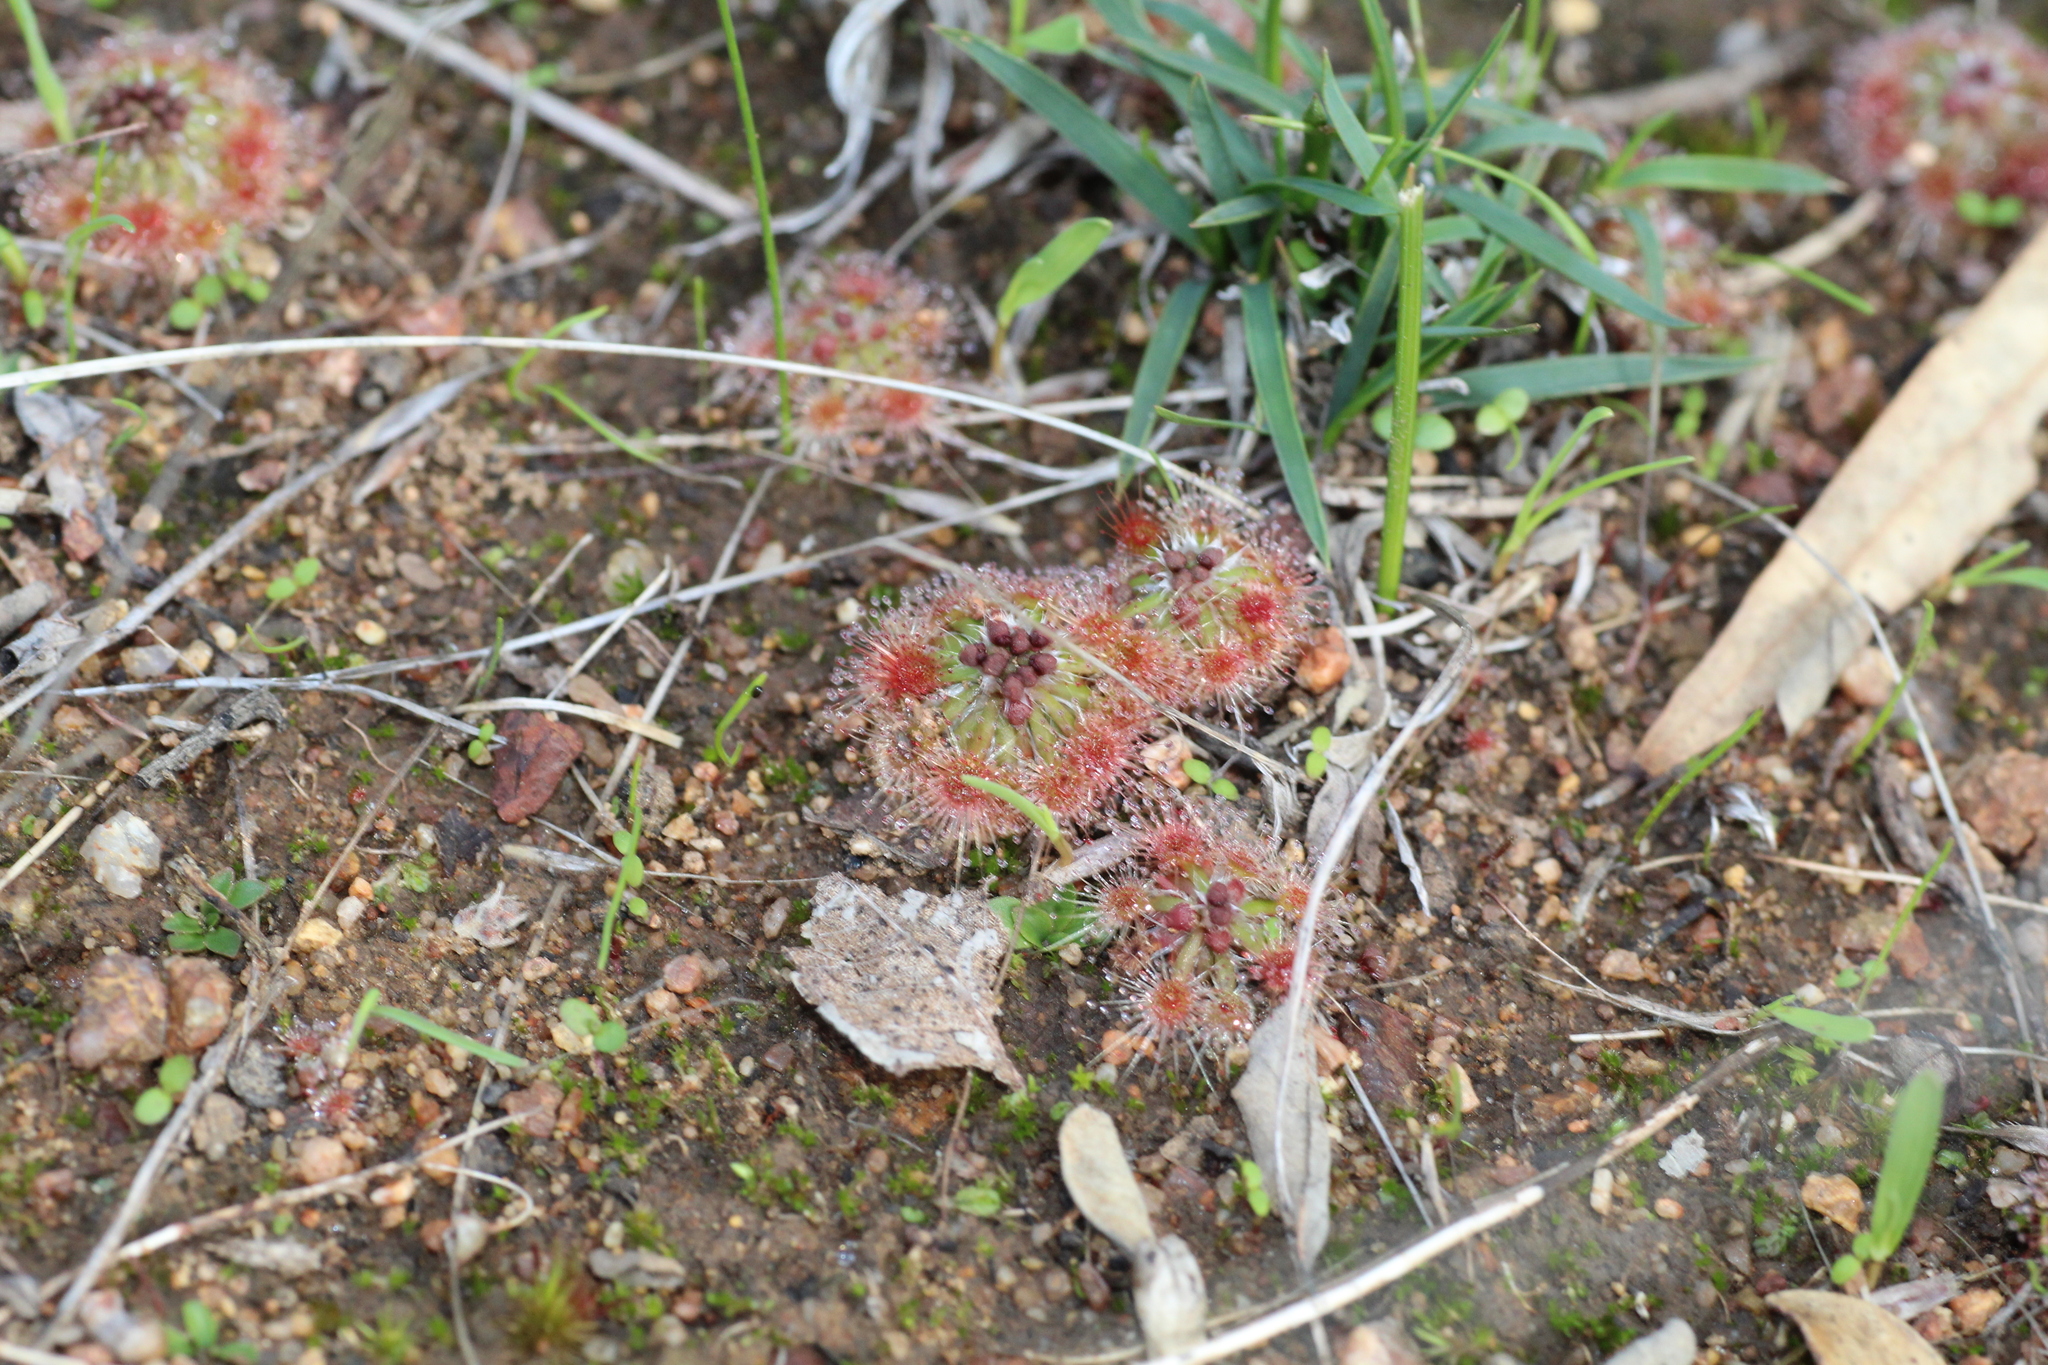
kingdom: Plantae
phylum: Tracheophyta
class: Magnoliopsida
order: Caryophyllales
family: Droseraceae
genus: Drosera
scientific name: Drosera walyunga
